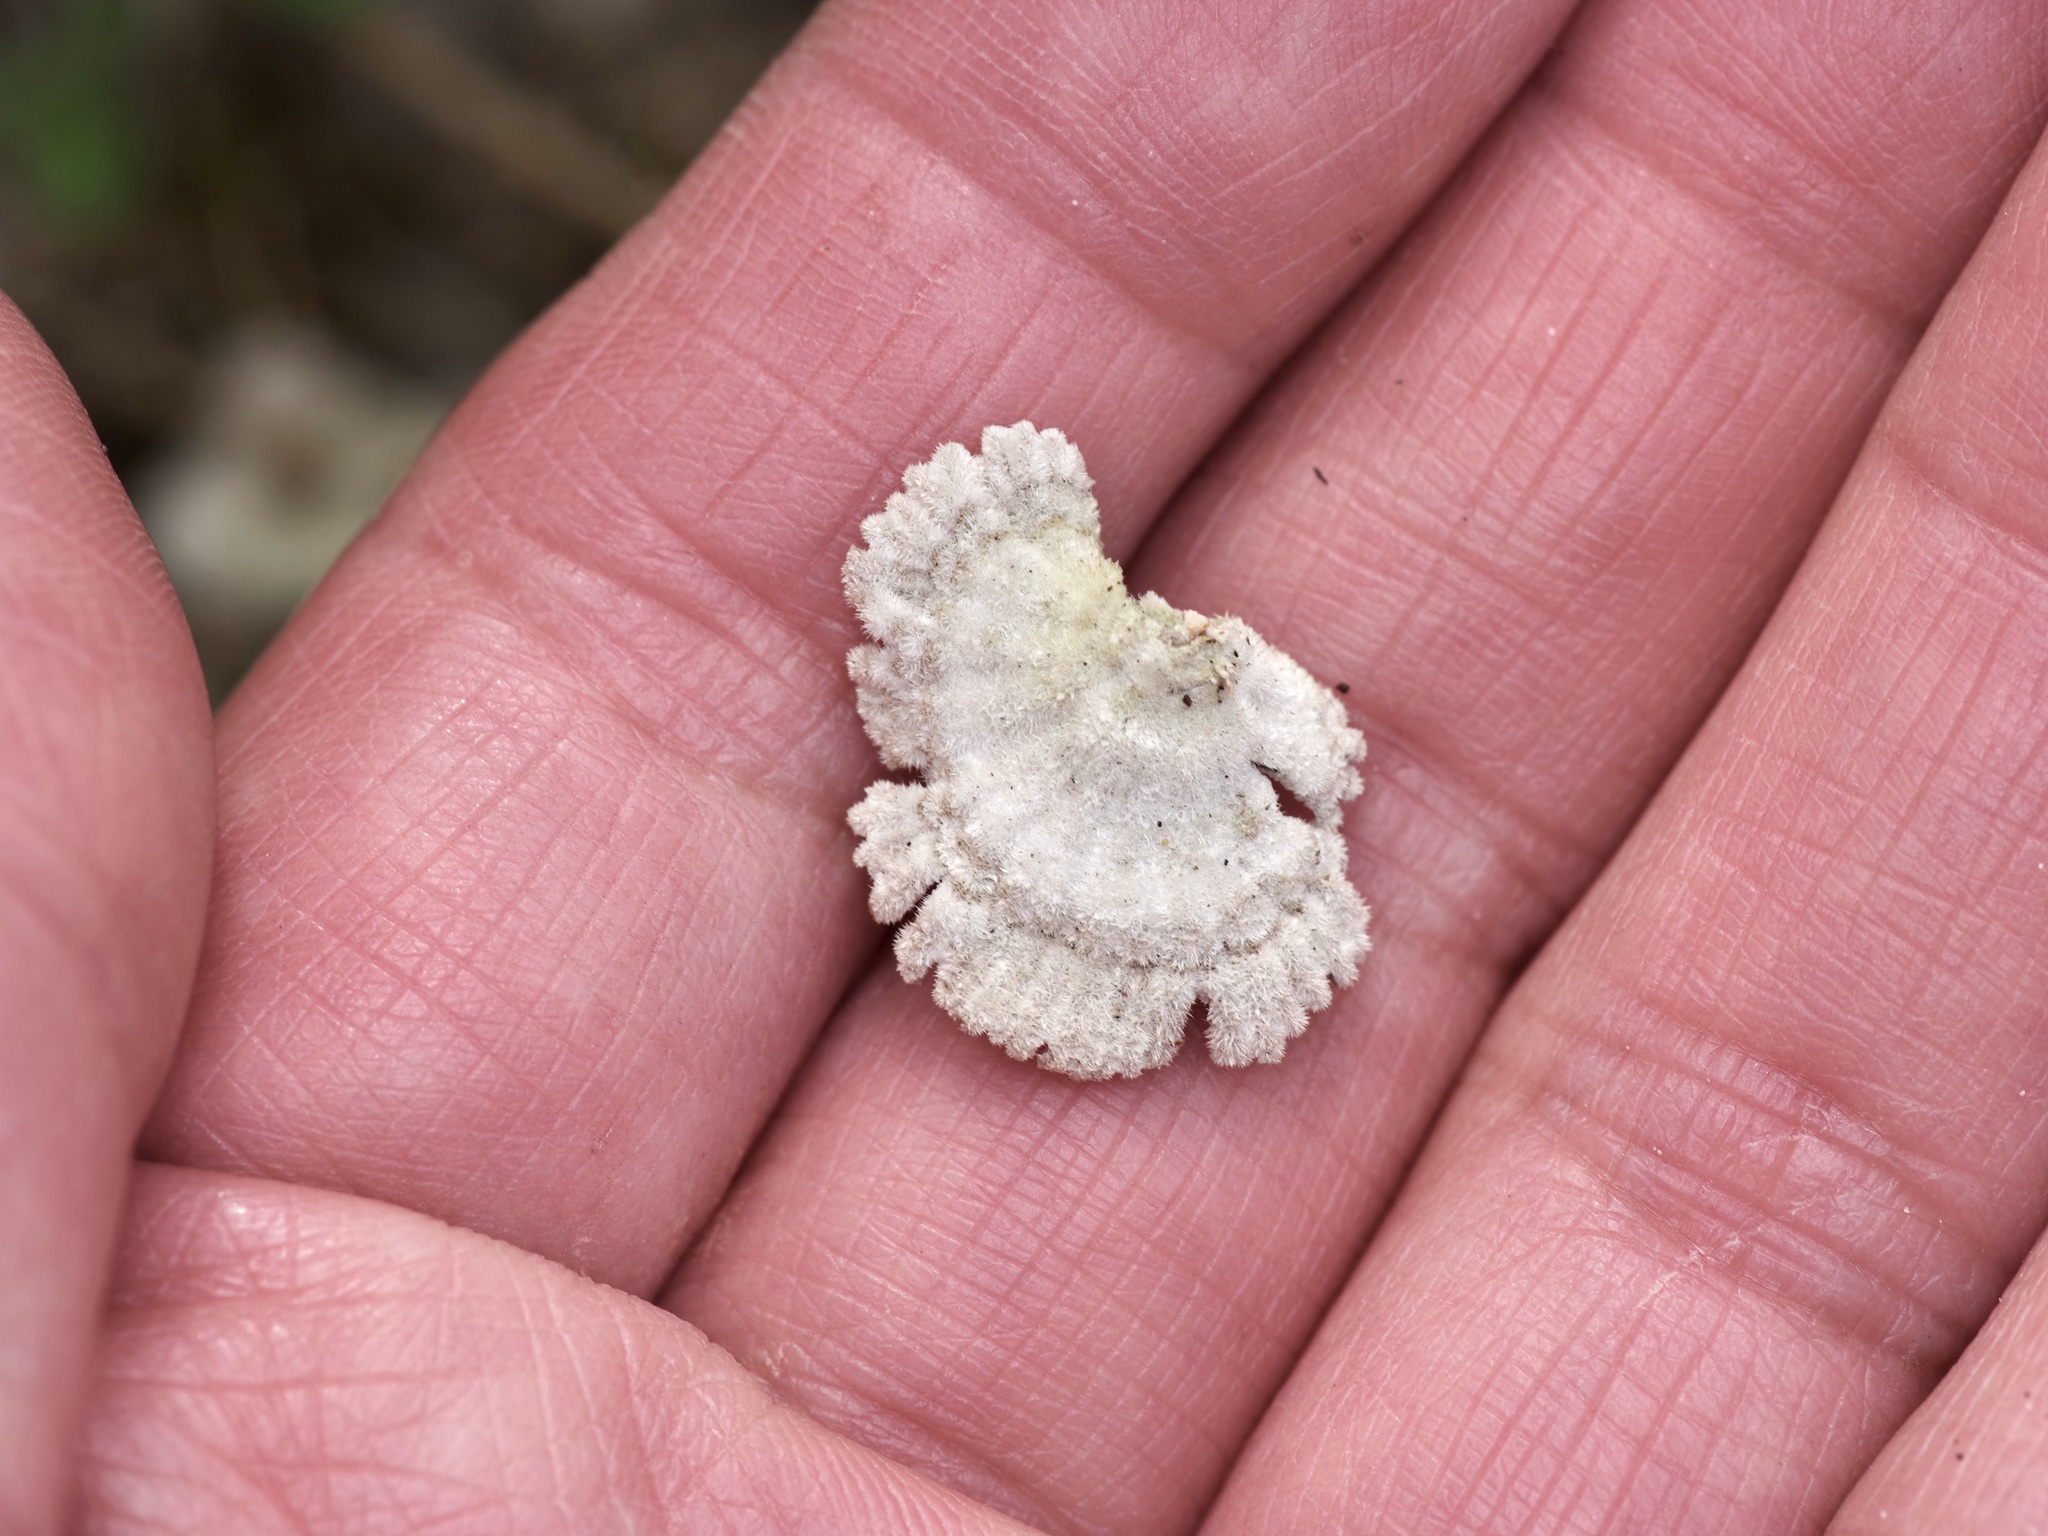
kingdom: Fungi
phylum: Basidiomycota
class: Agaricomycetes
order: Agaricales
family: Schizophyllaceae
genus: Schizophyllum
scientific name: Schizophyllum commune
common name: Common porecrust
